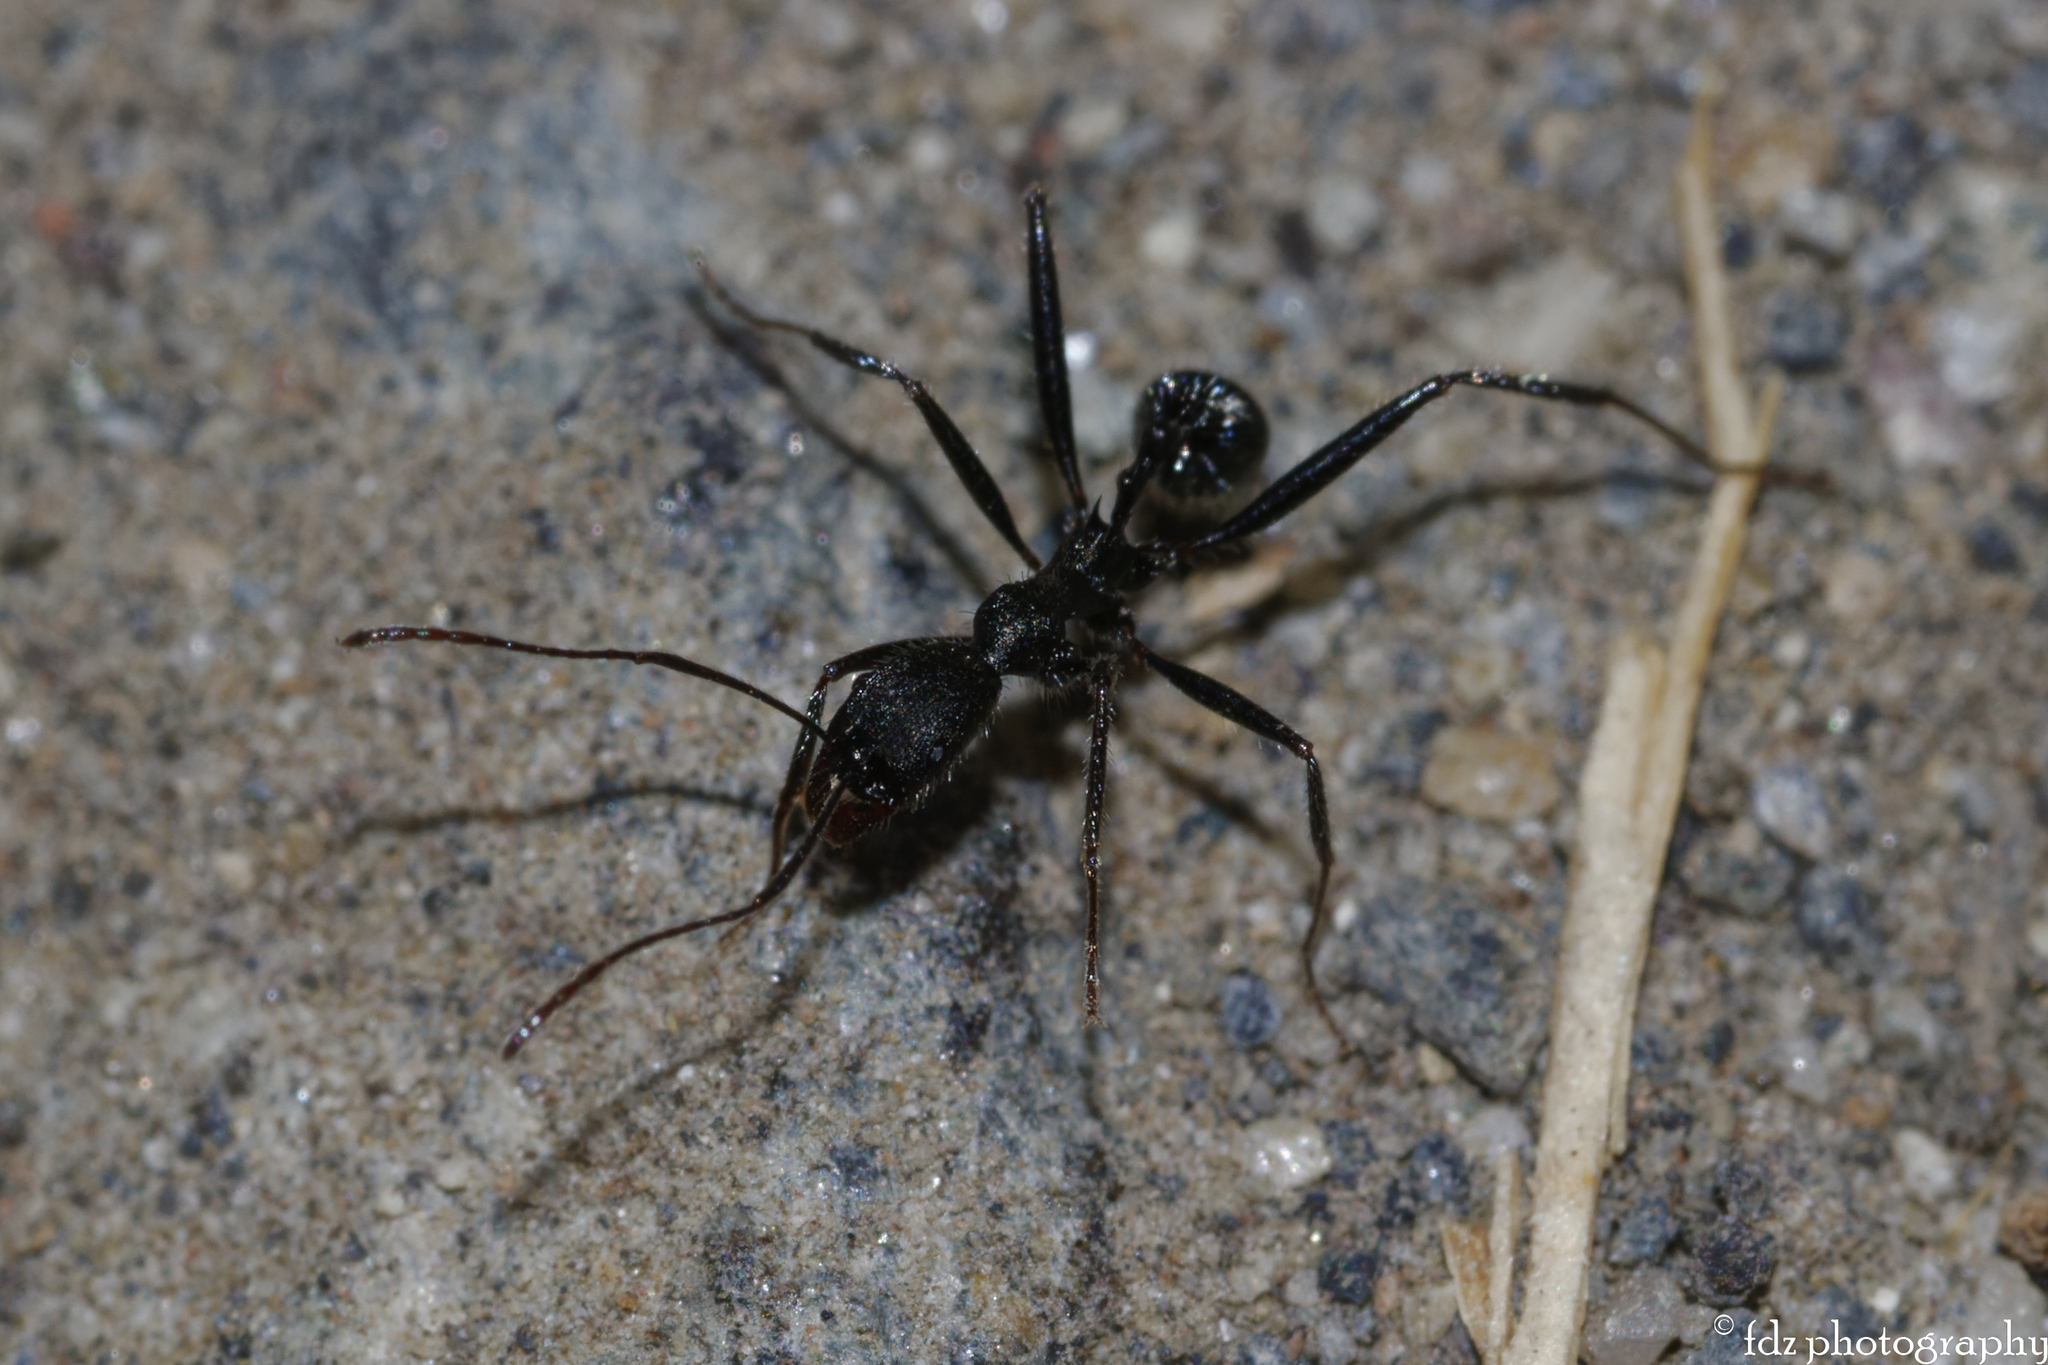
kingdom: Animalia
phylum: Arthropoda
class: Insecta
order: Hymenoptera
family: Formicidae
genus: Aphaenogaster
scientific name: Aphaenogaster senilis
